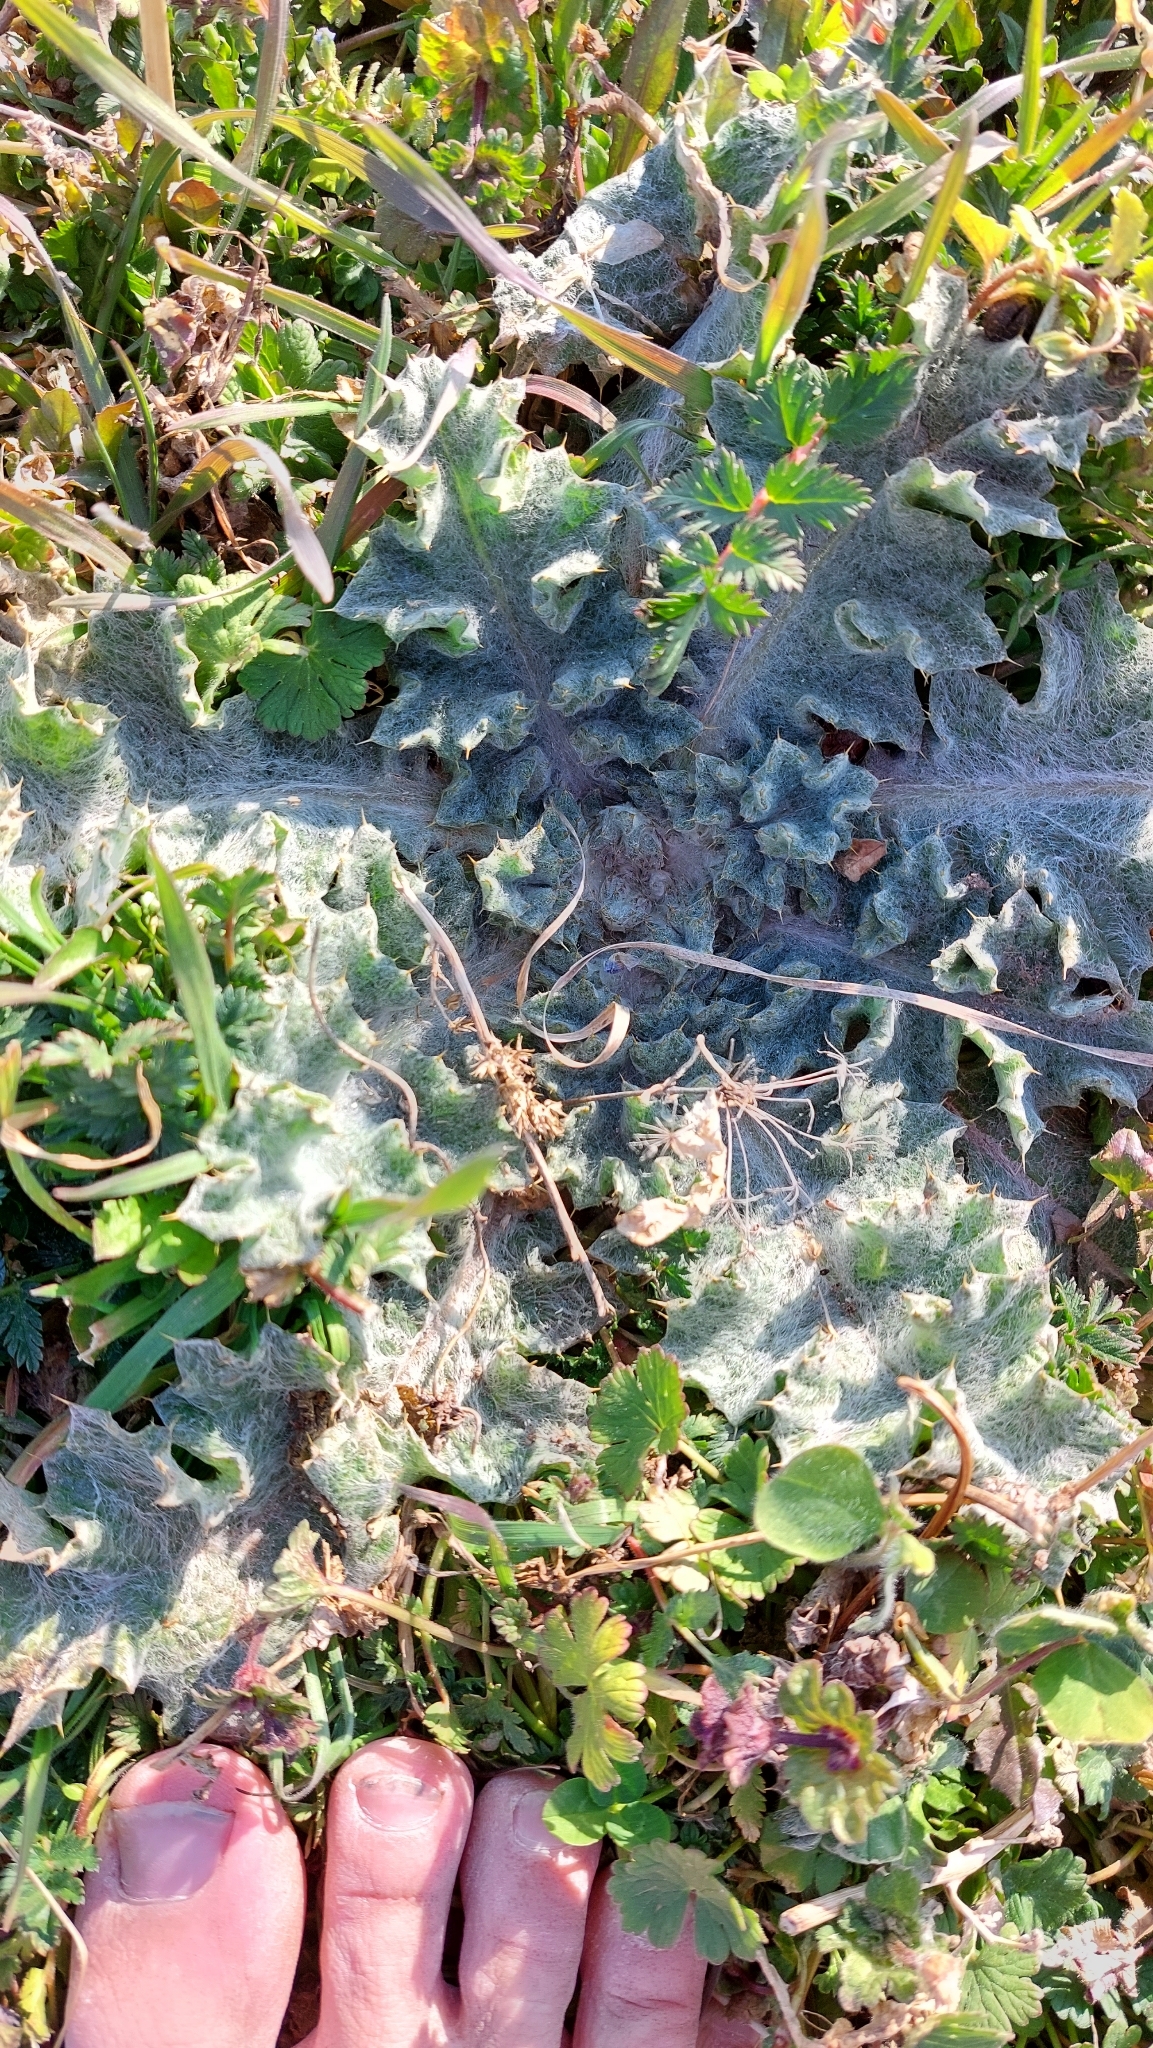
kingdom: Plantae
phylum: Tracheophyta
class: Magnoliopsida
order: Asterales
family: Asteraceae
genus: Onopordum
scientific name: Onopordum acanthium
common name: Scotch thistle
